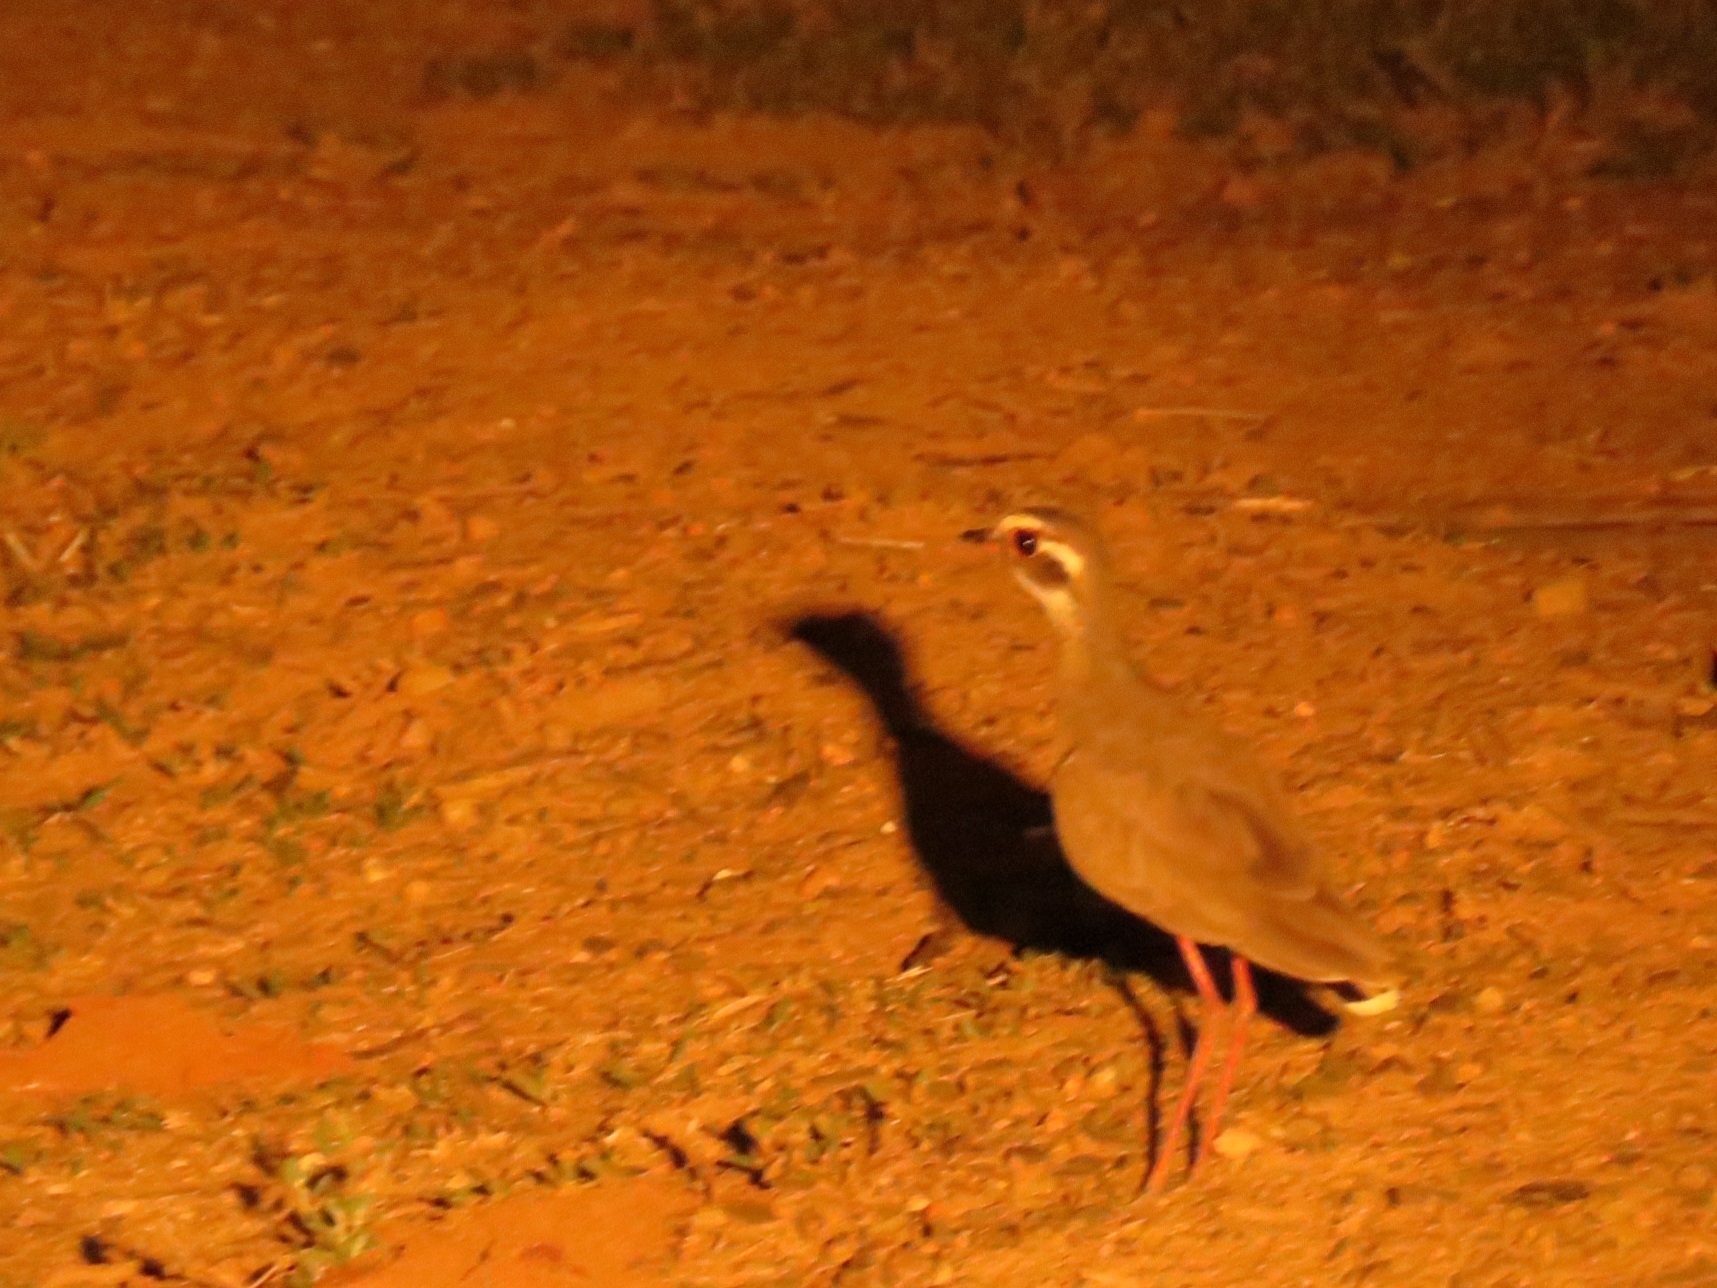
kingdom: Animalia
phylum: Chordata
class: Aves
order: Charadriiformes
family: Glareolidae
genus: Rhinoptilus
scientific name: Rhinoptilus chalcopterus
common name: Bronze-winged courser
